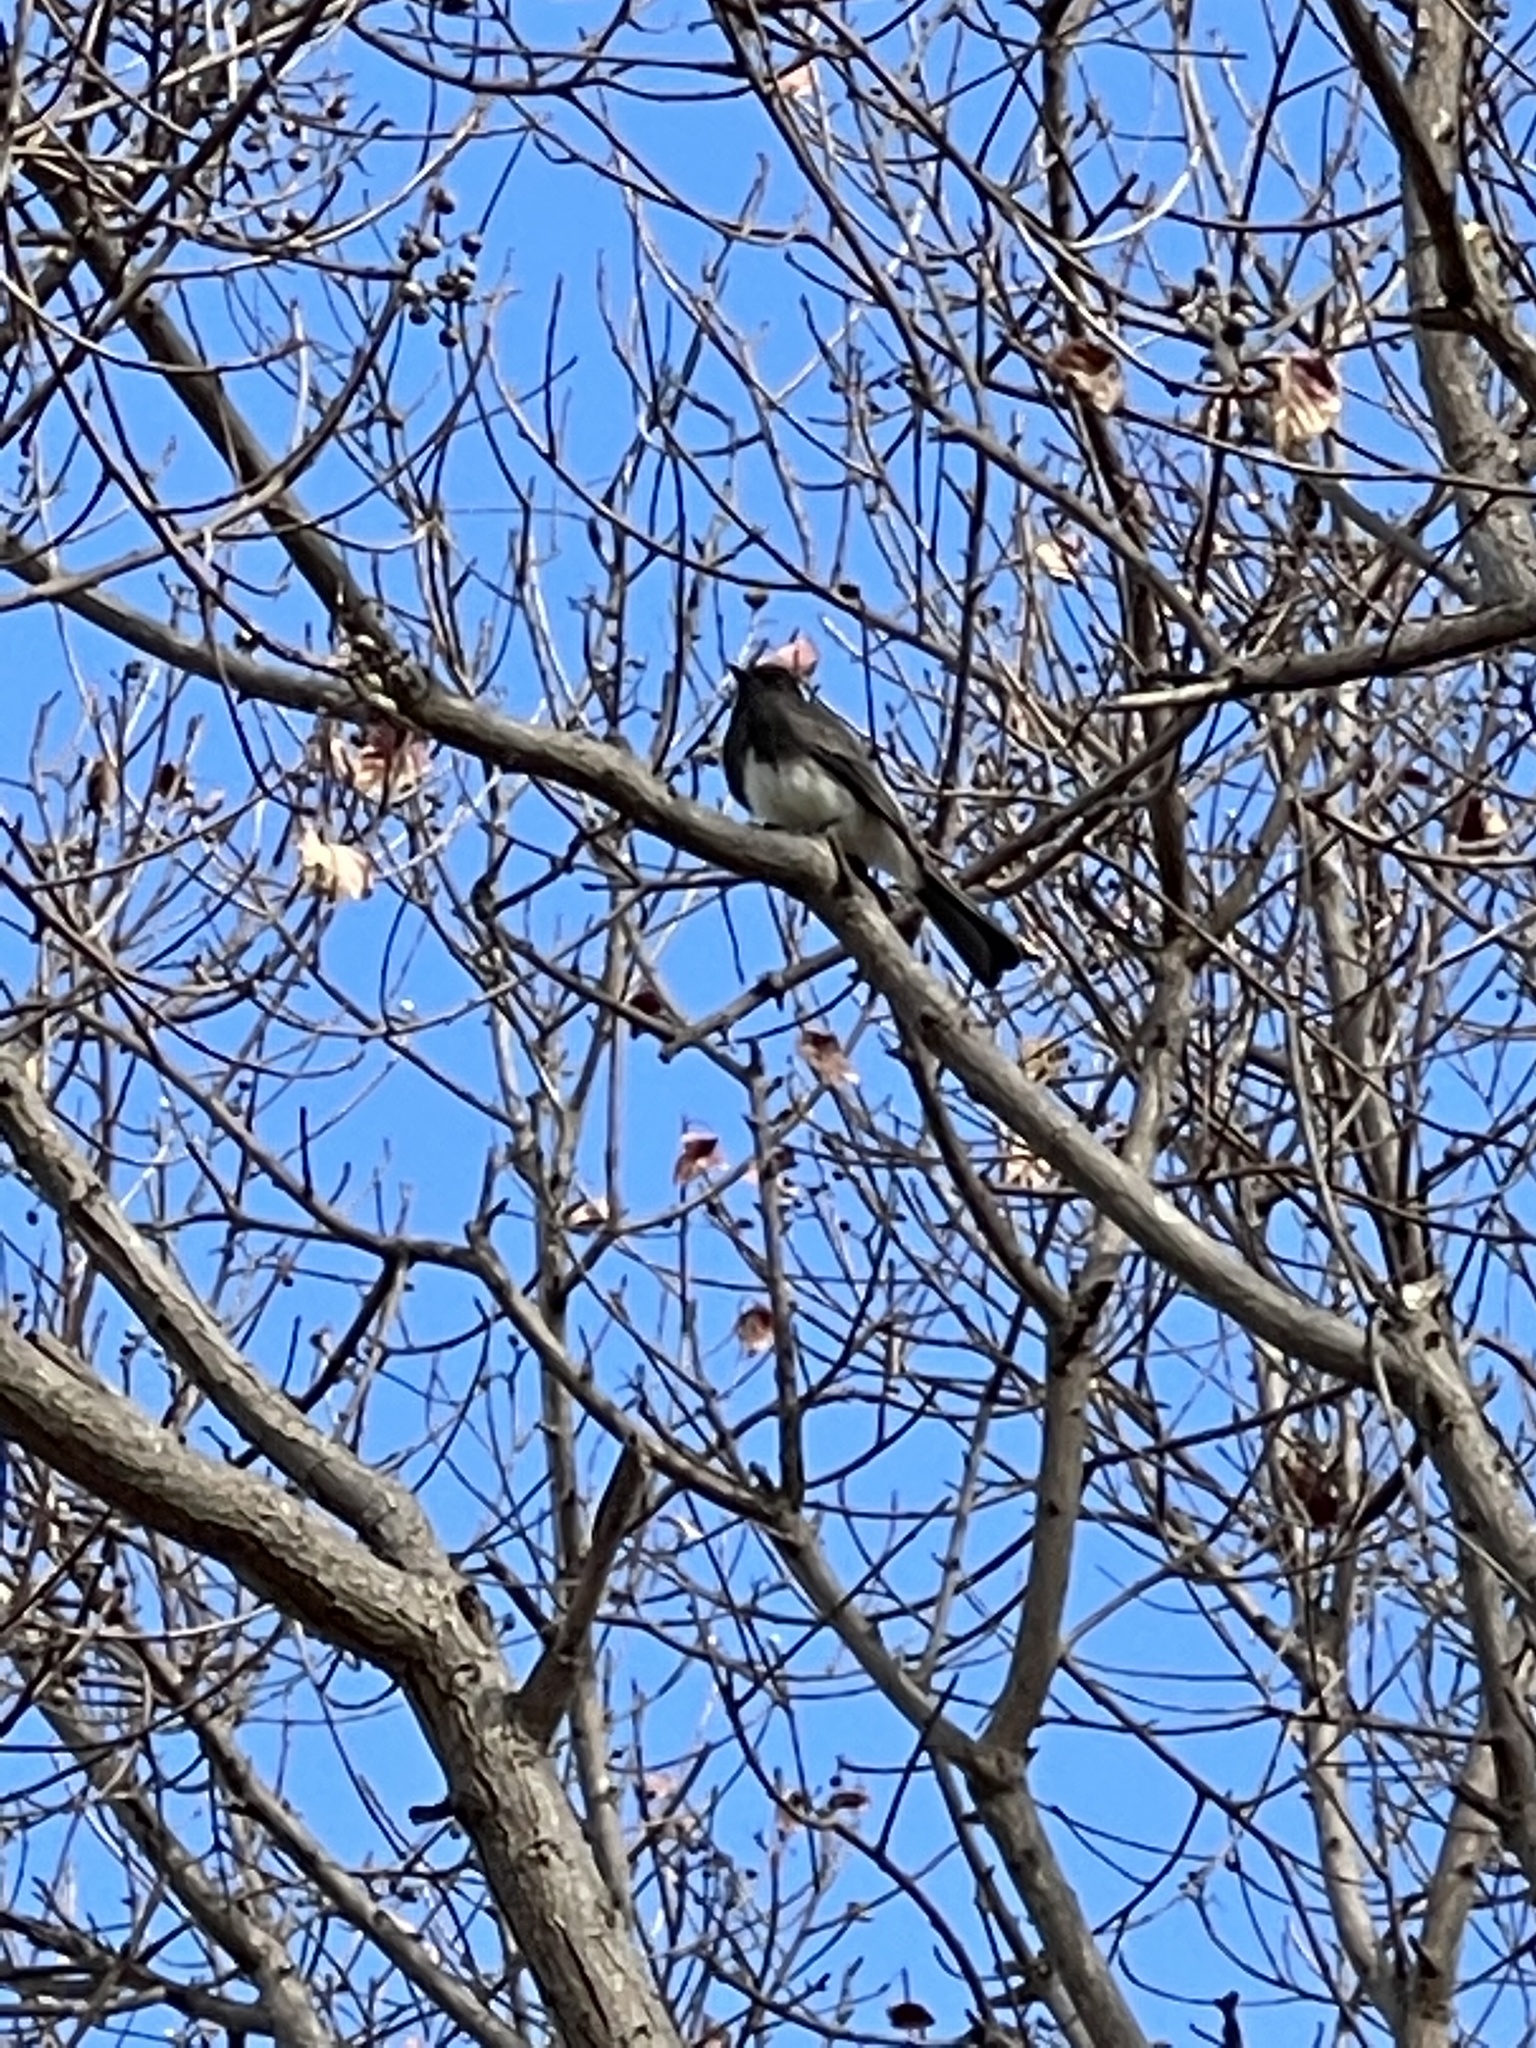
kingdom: Animalia
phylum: Chordata
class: Aves
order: Passeriformes
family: Tyrannidae
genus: Sayornis
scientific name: Sayornis nigricans
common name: Black phoebe
